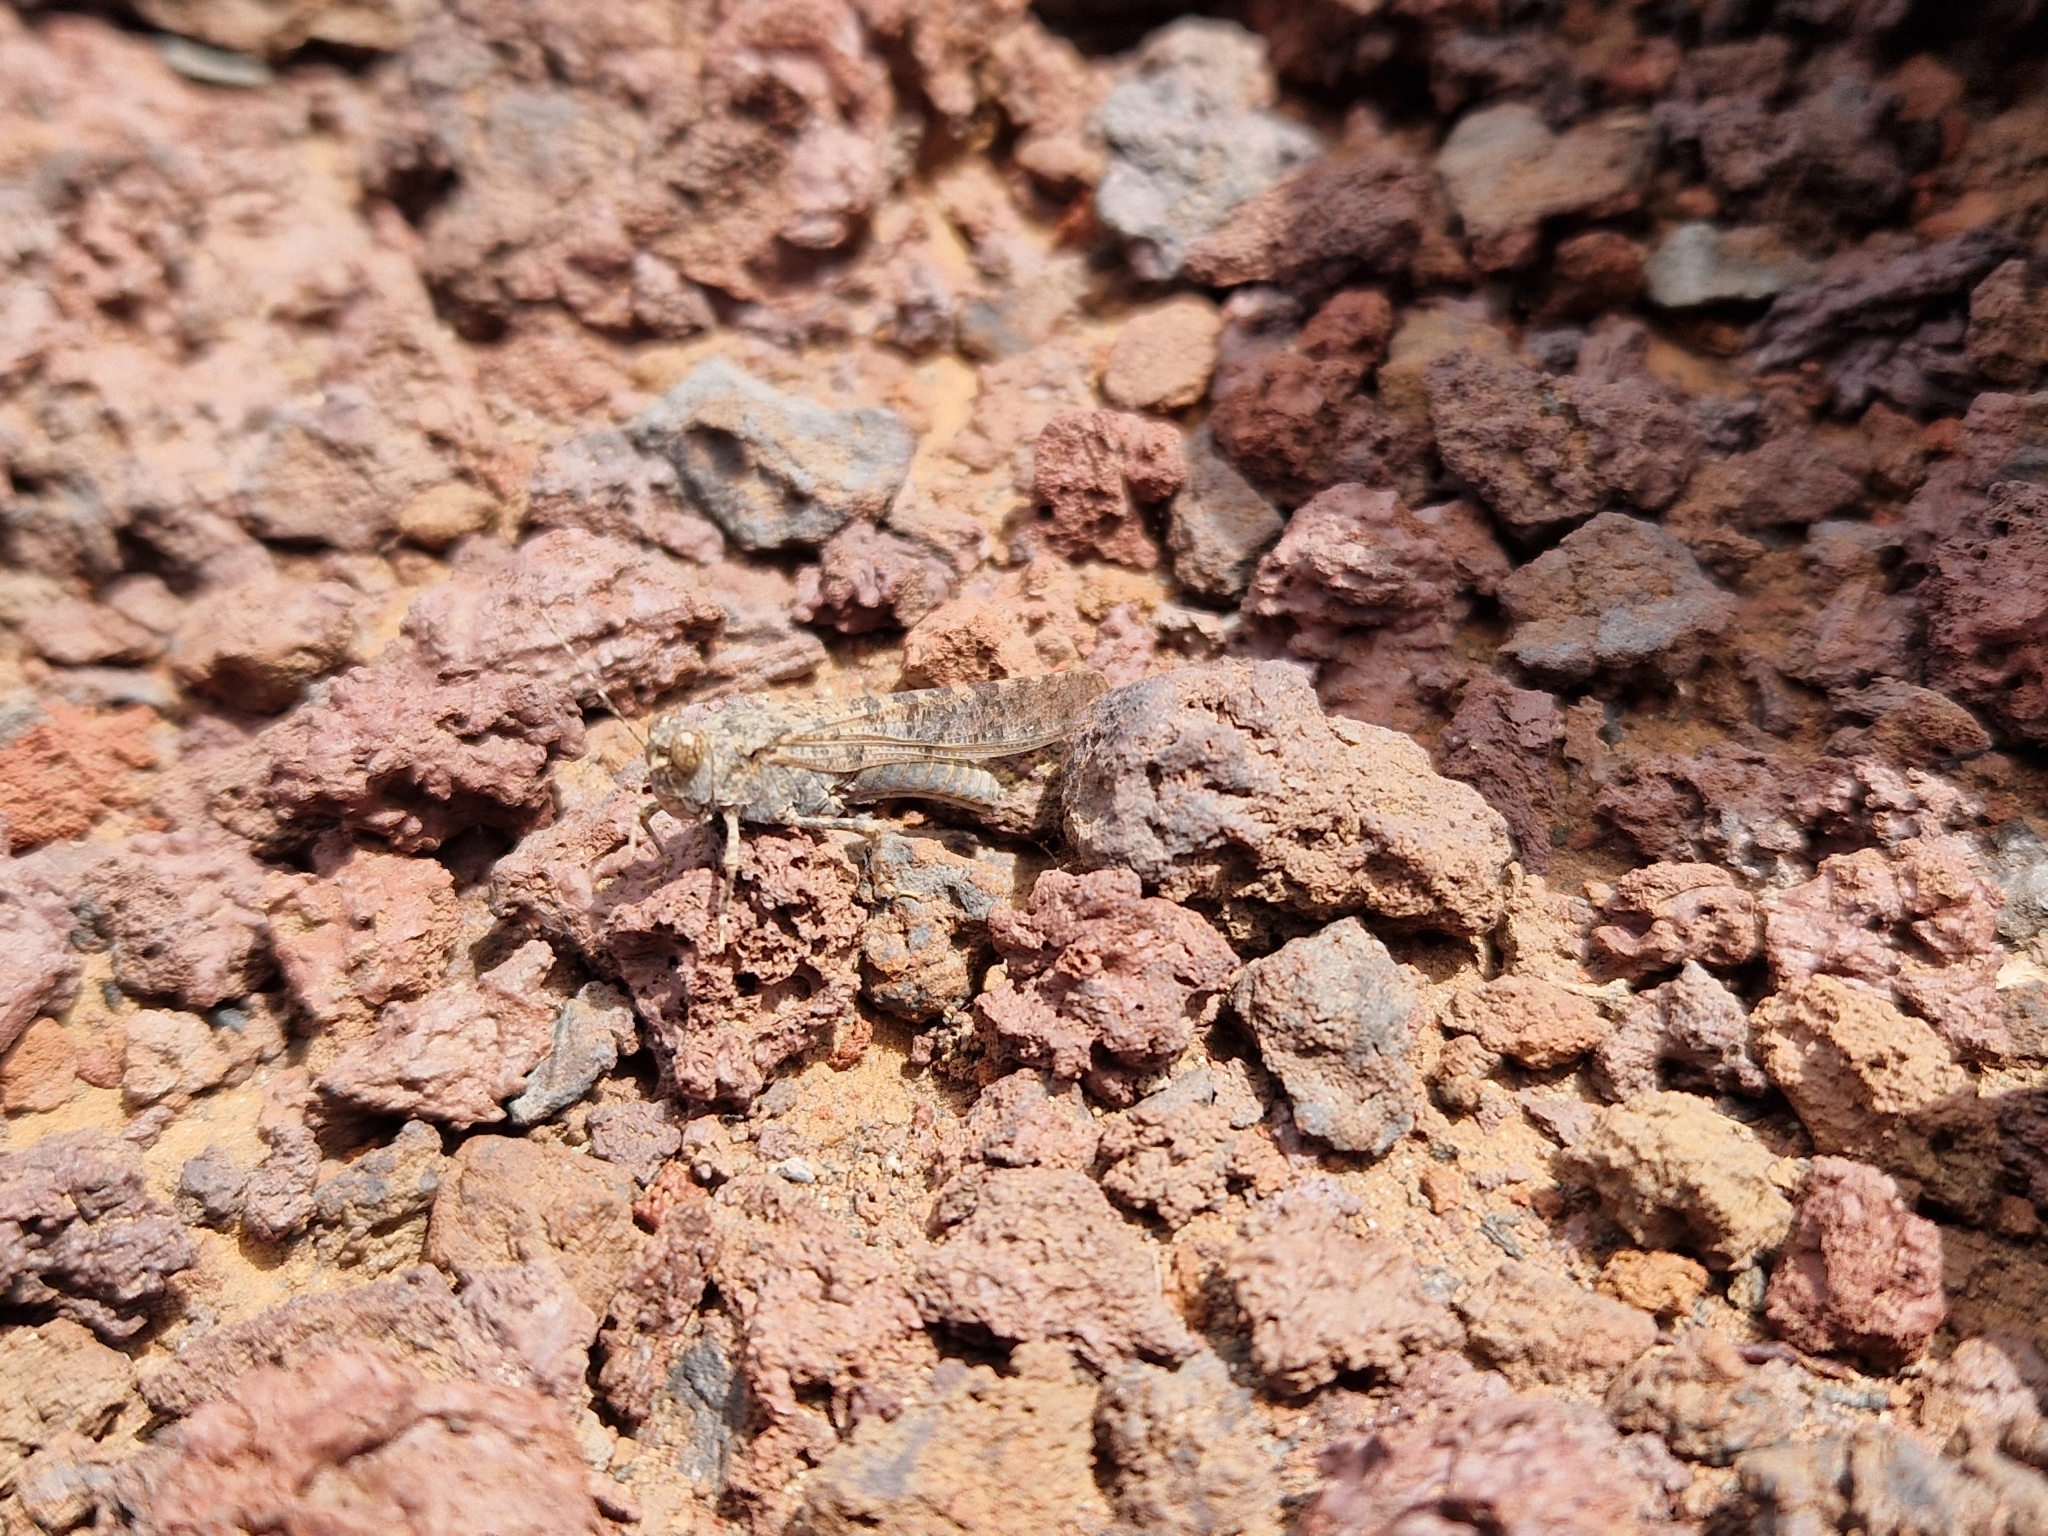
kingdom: Animalia
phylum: Arthropoda
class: Insecta
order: Orthoptera
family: Acrididae
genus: Sphingonotus
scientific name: Sphingonotus rubescens
